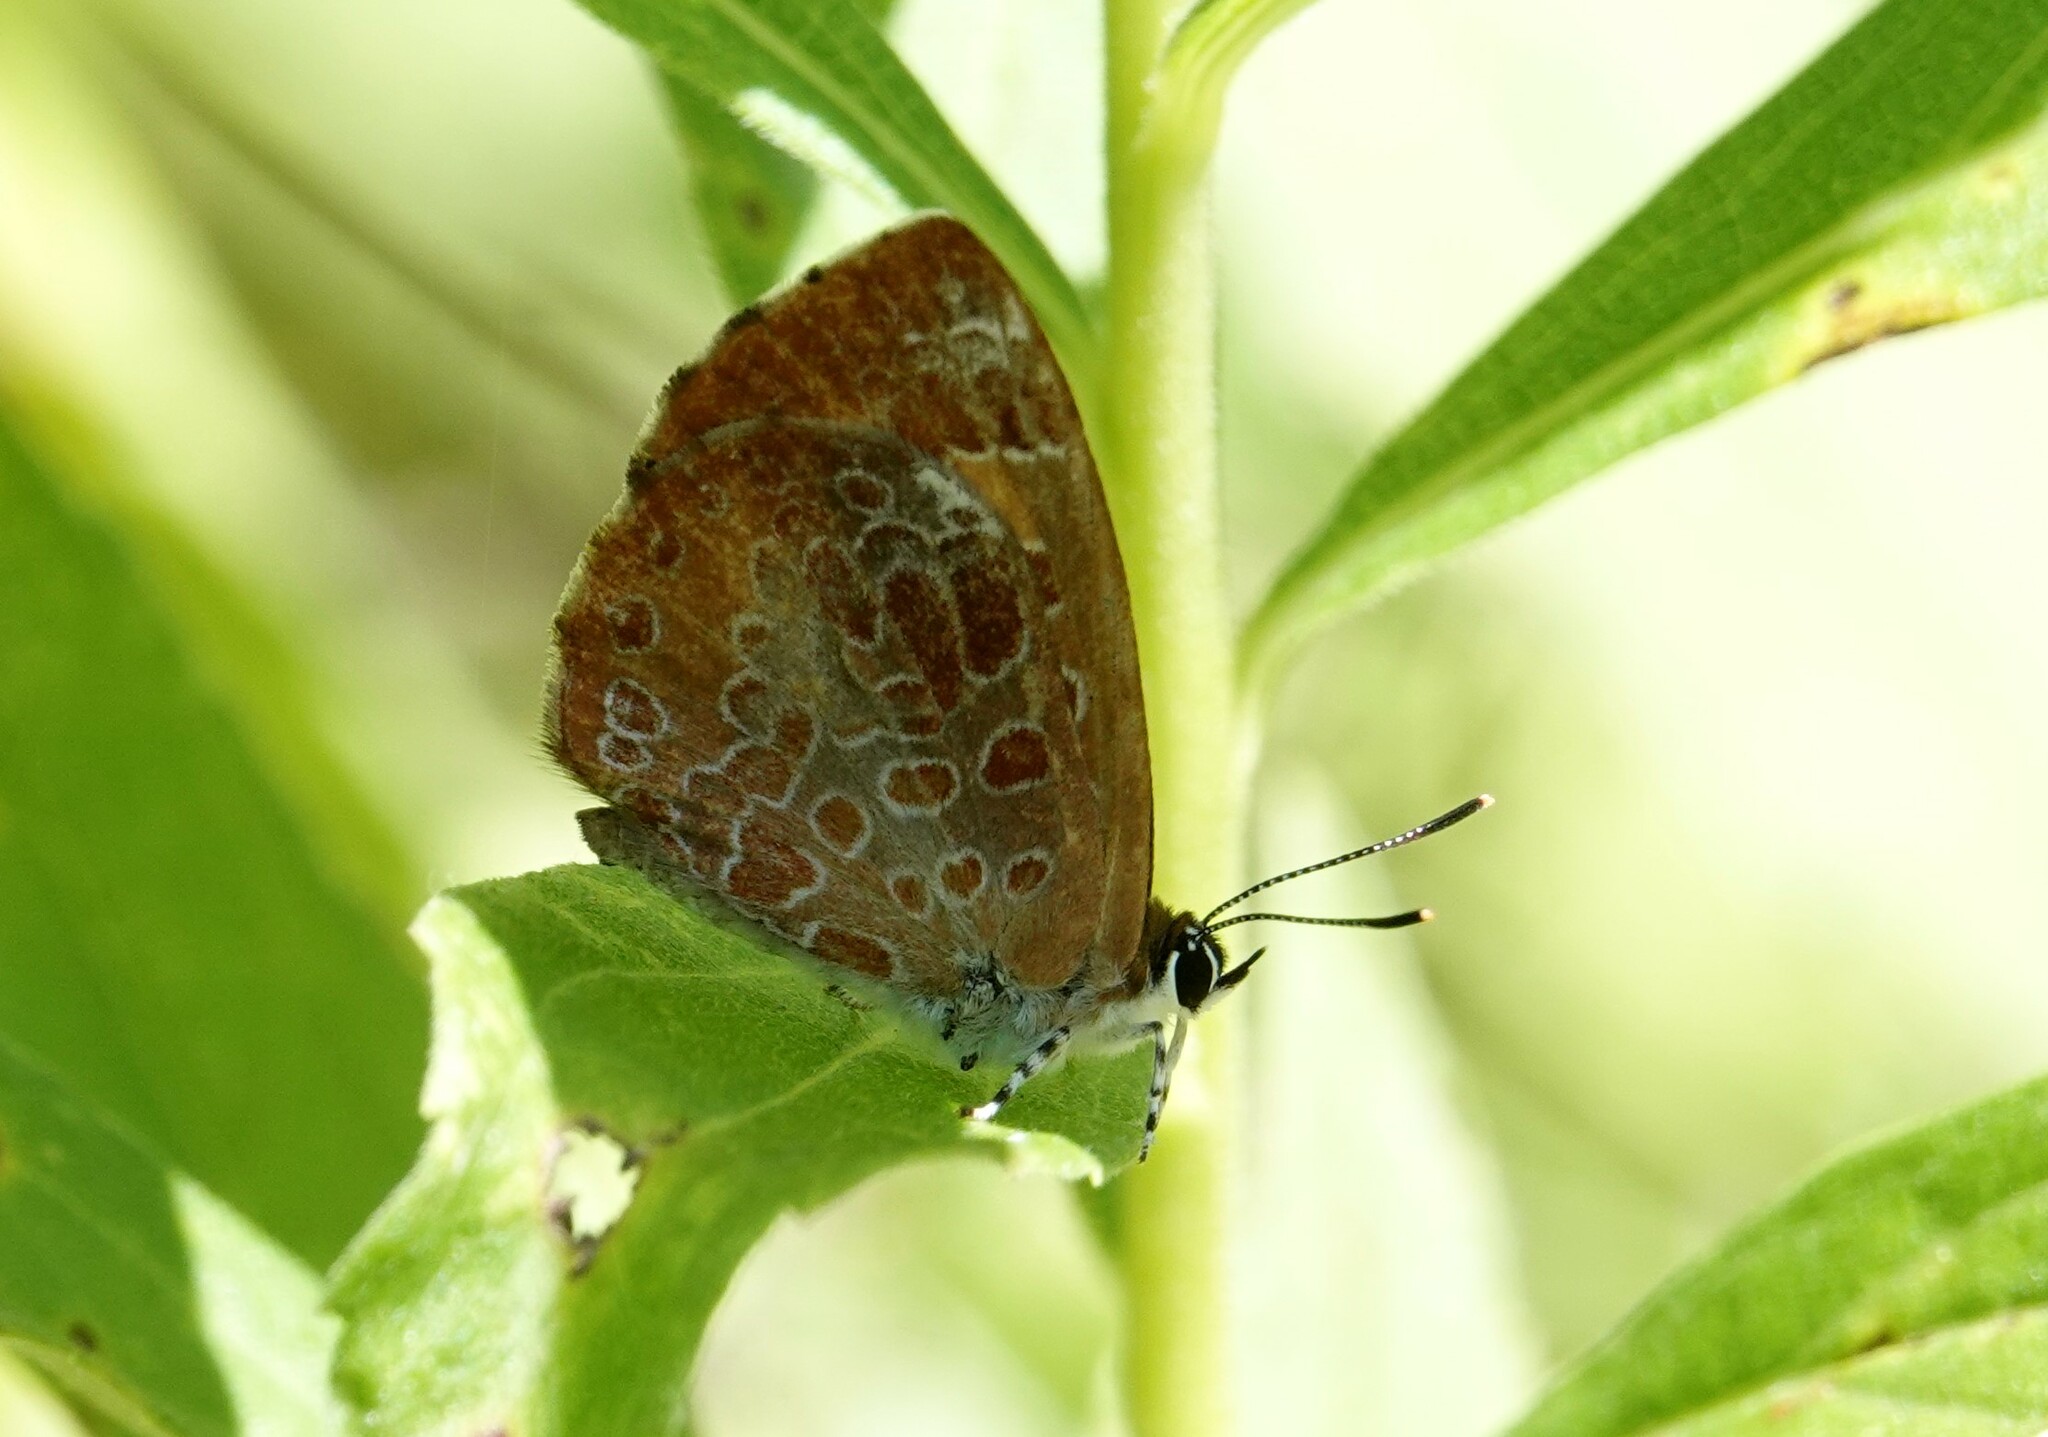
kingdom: Animalia
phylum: Arthropoda
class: Insecta
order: Lepidoptera
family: Lycaenidae
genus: Feniseca
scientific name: Feniseca tarquinius
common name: Harvester
